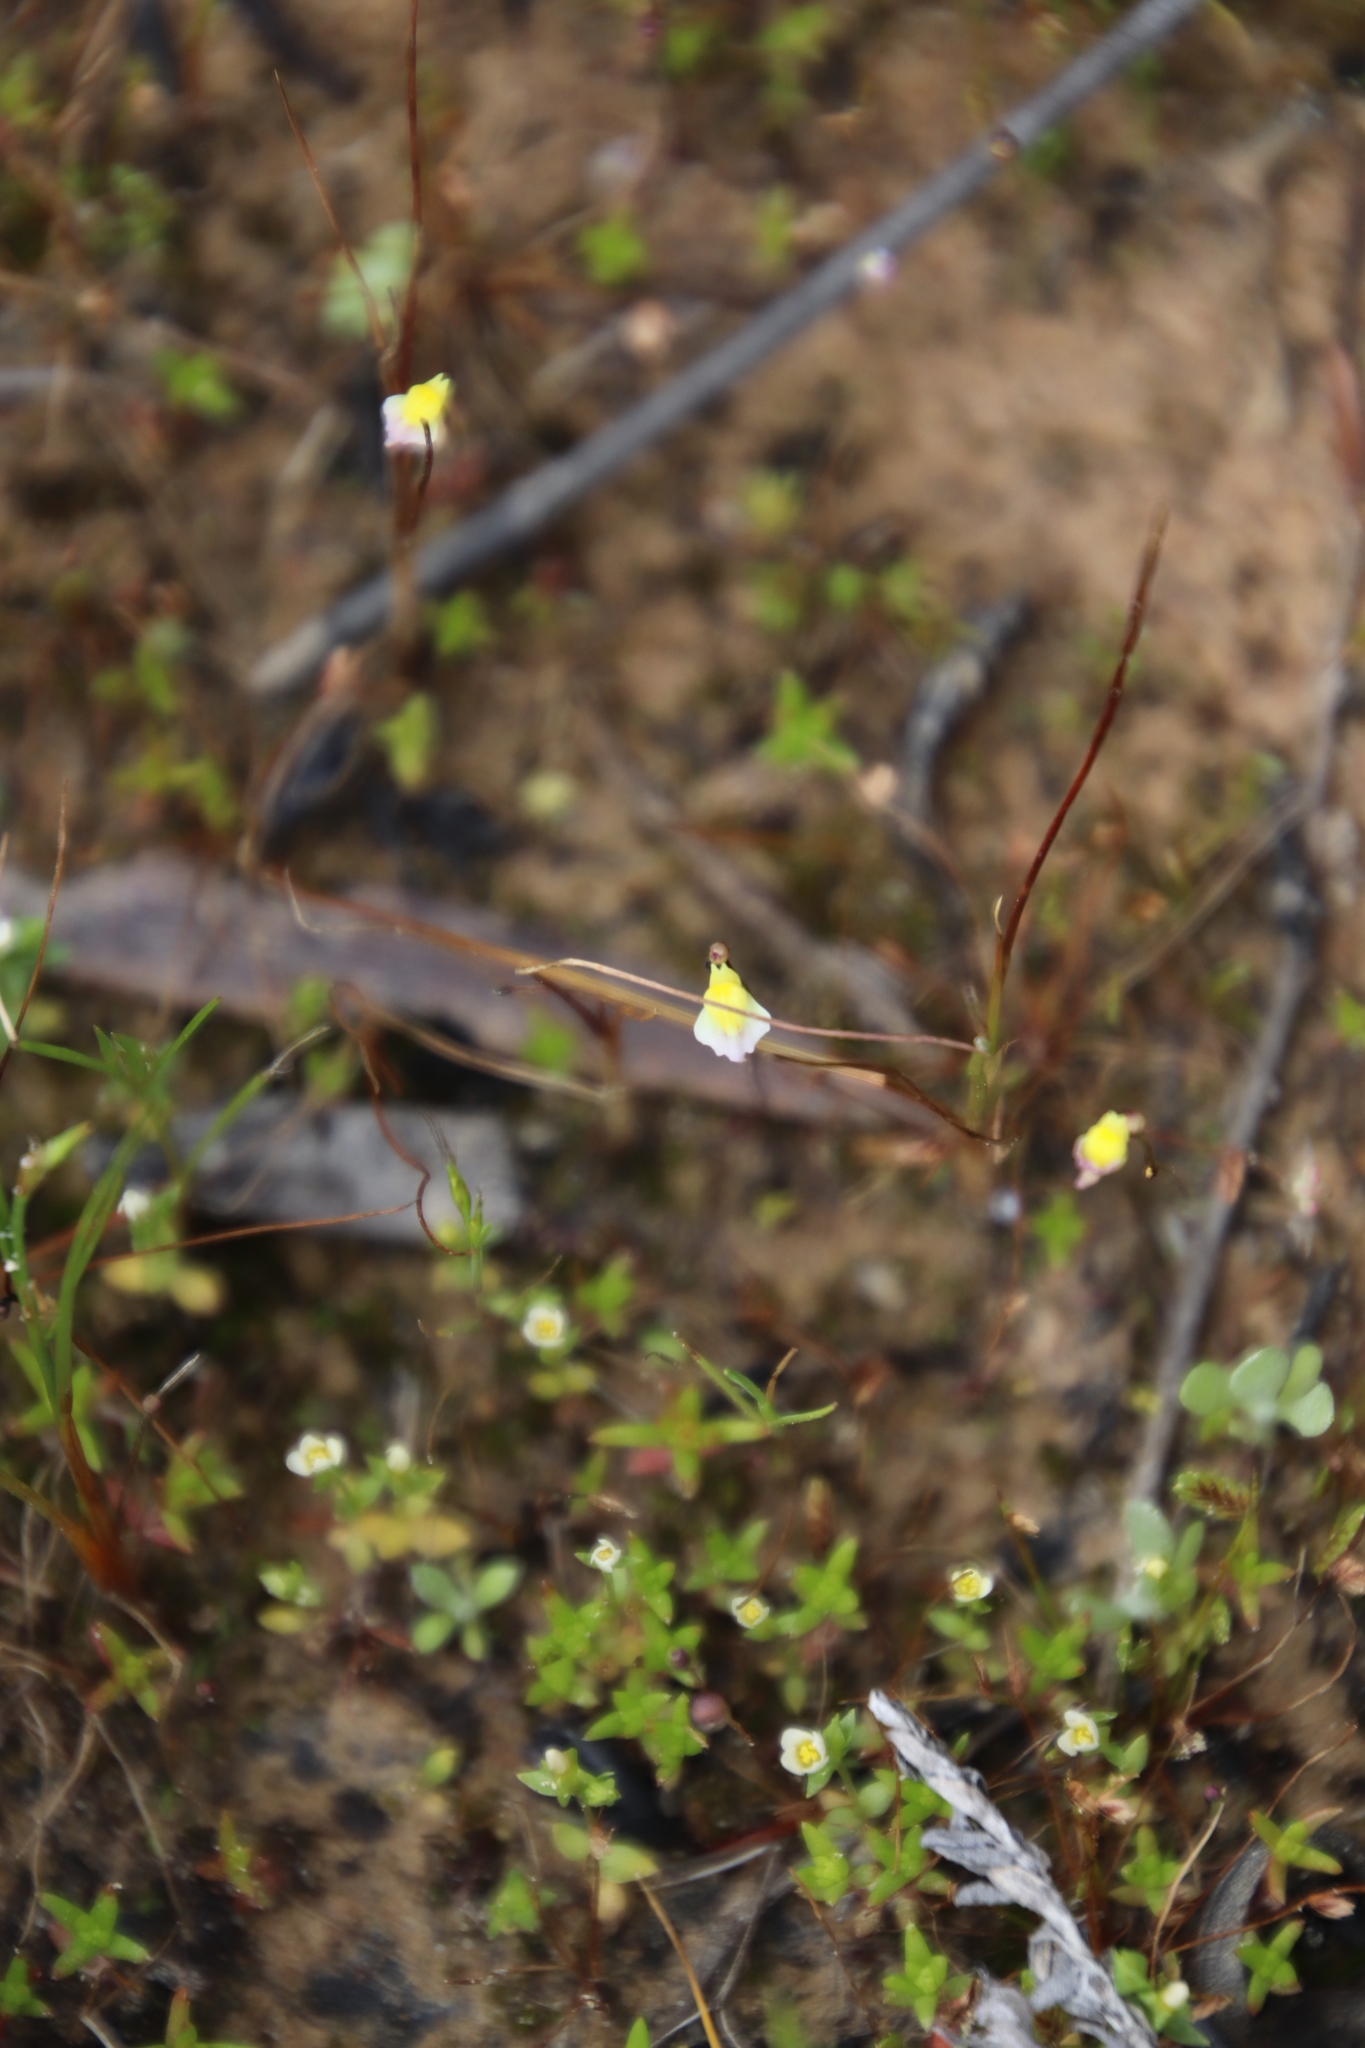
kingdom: Plantae
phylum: Tracheophyta
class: Magnoliopsida
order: Lamiales
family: Lentibulariaceae
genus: Utricularia
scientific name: Utricularia bisquamata
